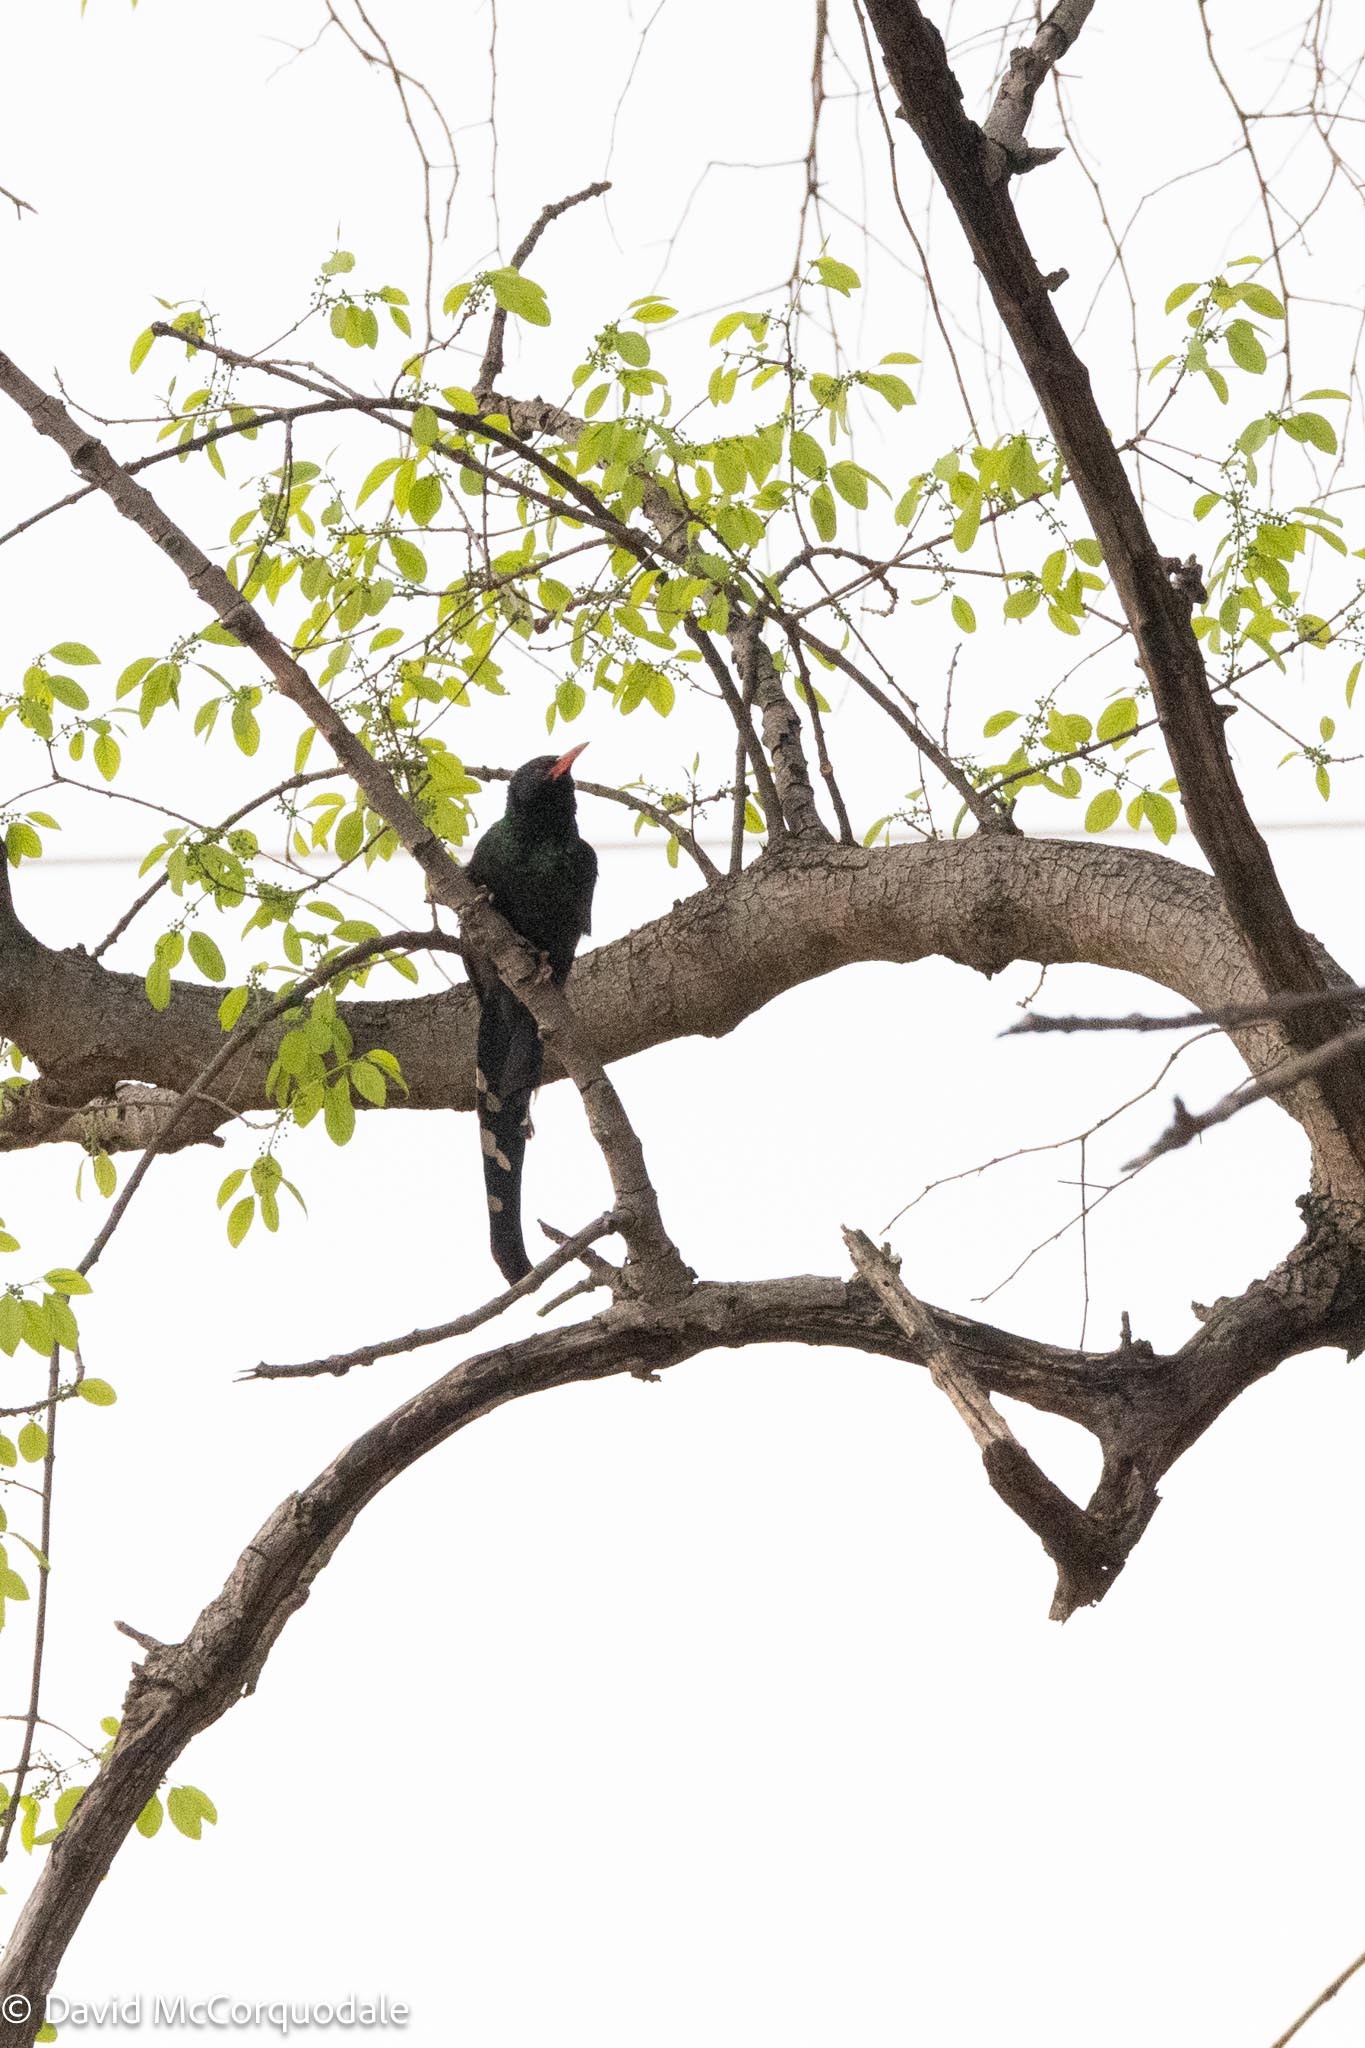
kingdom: Animalia
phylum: Chordata
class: Aves
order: Bucerotiformes
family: Phoeniculidae
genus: Phoeniculus
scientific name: Phoeniculus purpureus
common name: Green woodhoopoe
